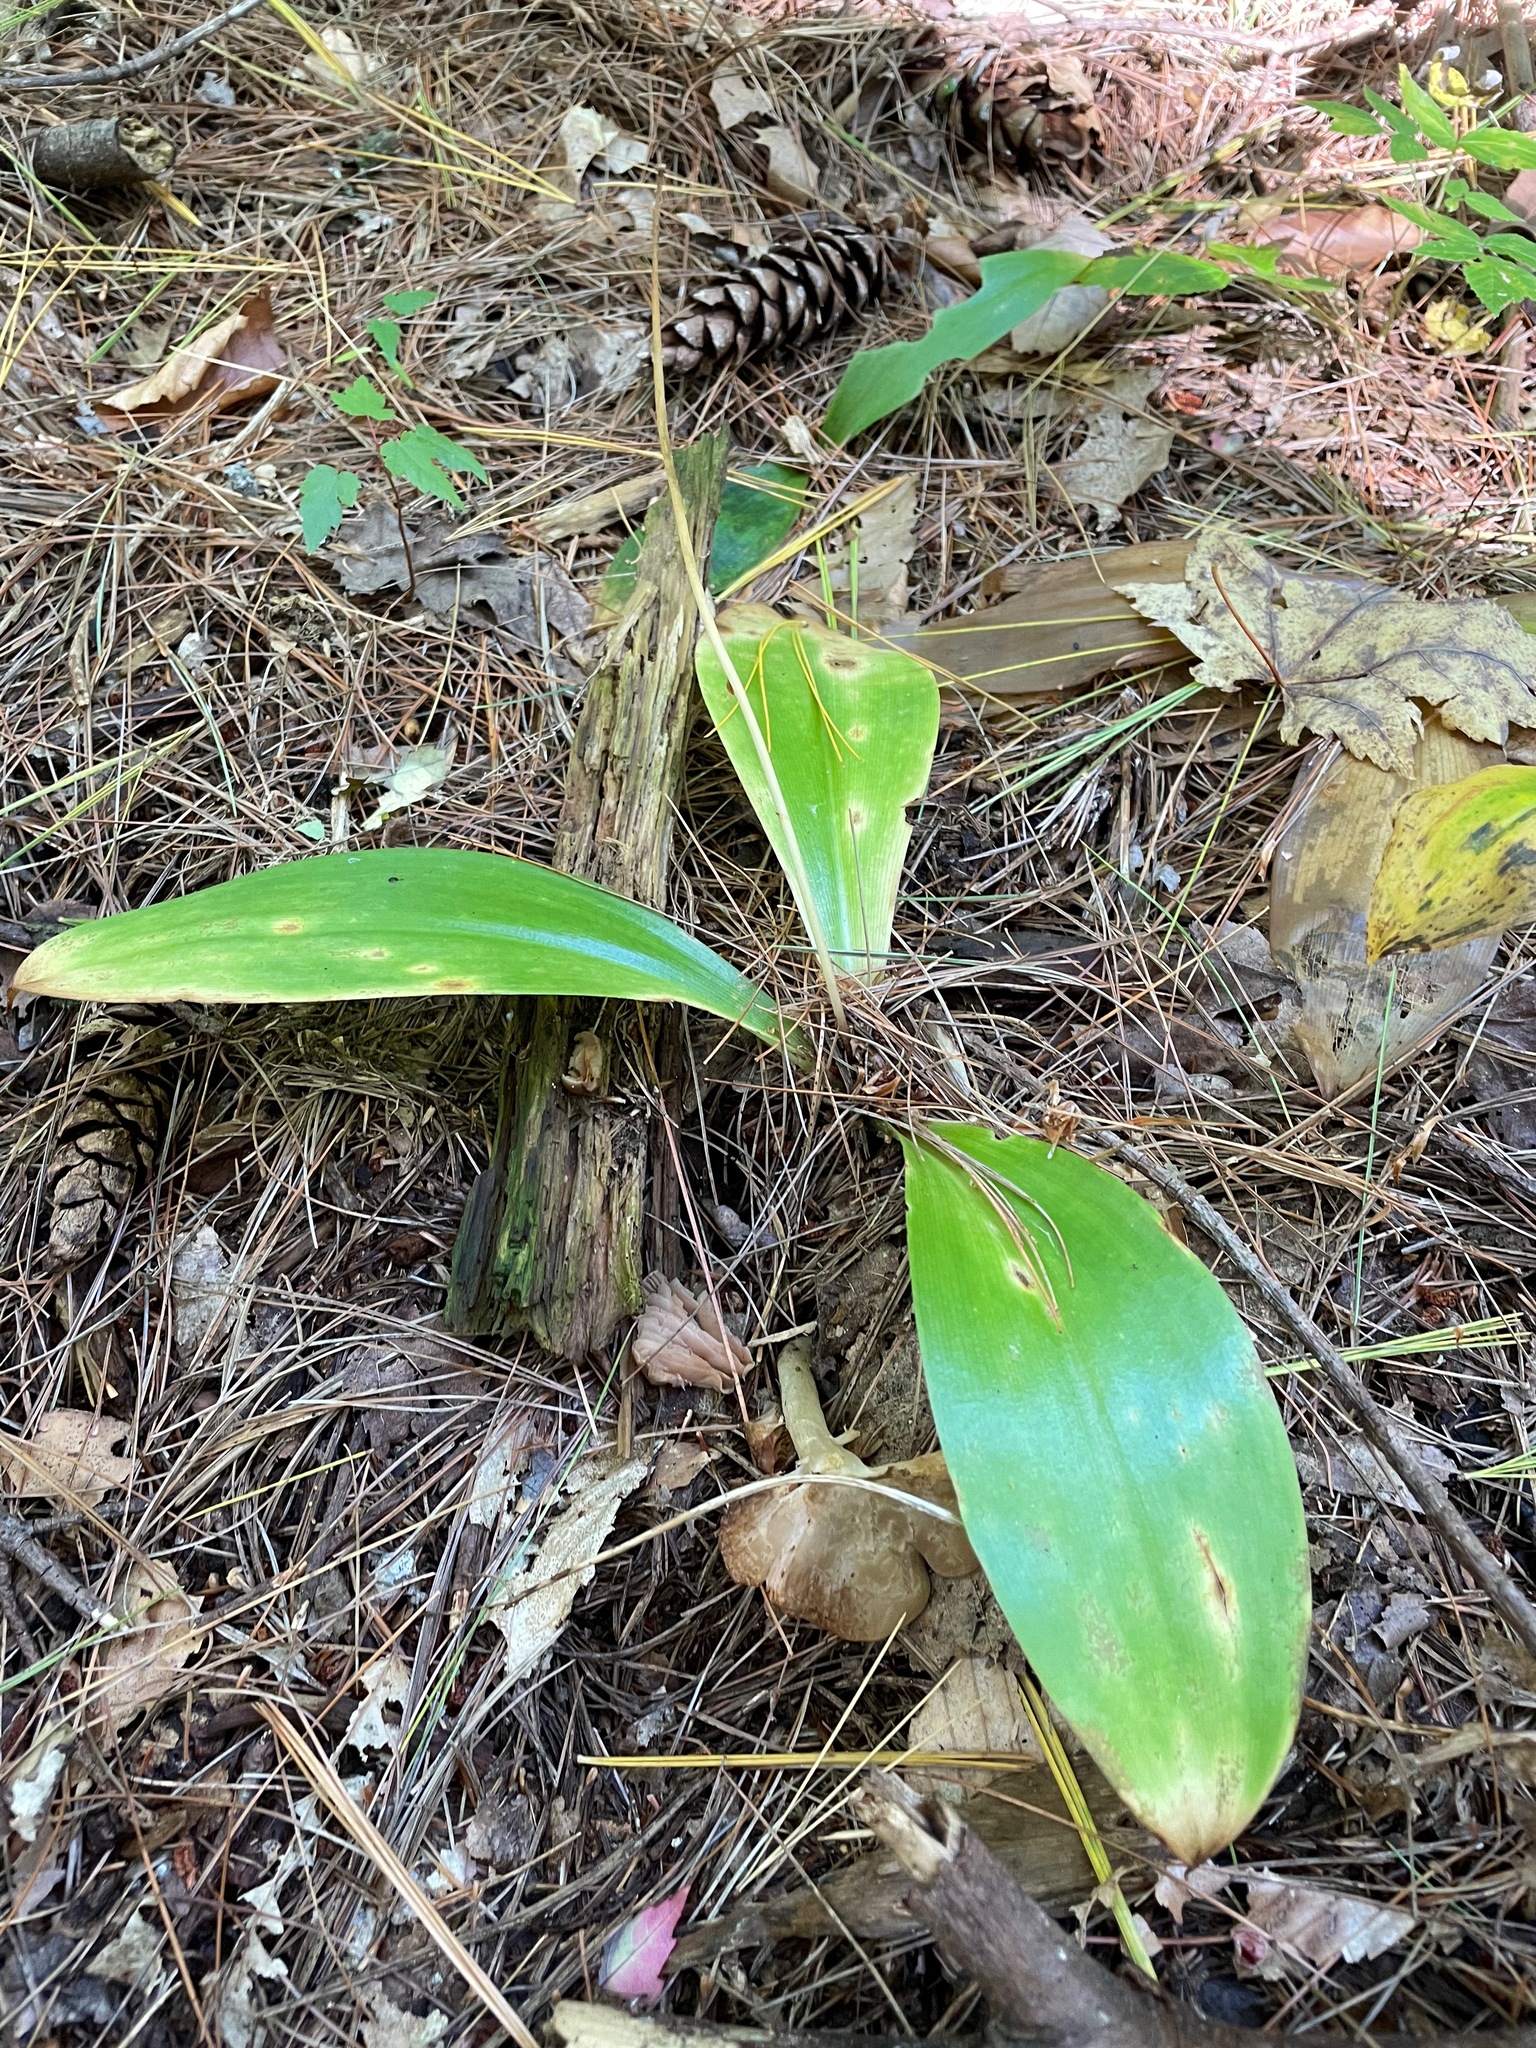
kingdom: Plantae
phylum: Tracheophyta
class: Liliopsida
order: Liliales
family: Liliaceae
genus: Clintonia
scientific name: Clintonia borealis
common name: Yellow clintonia
